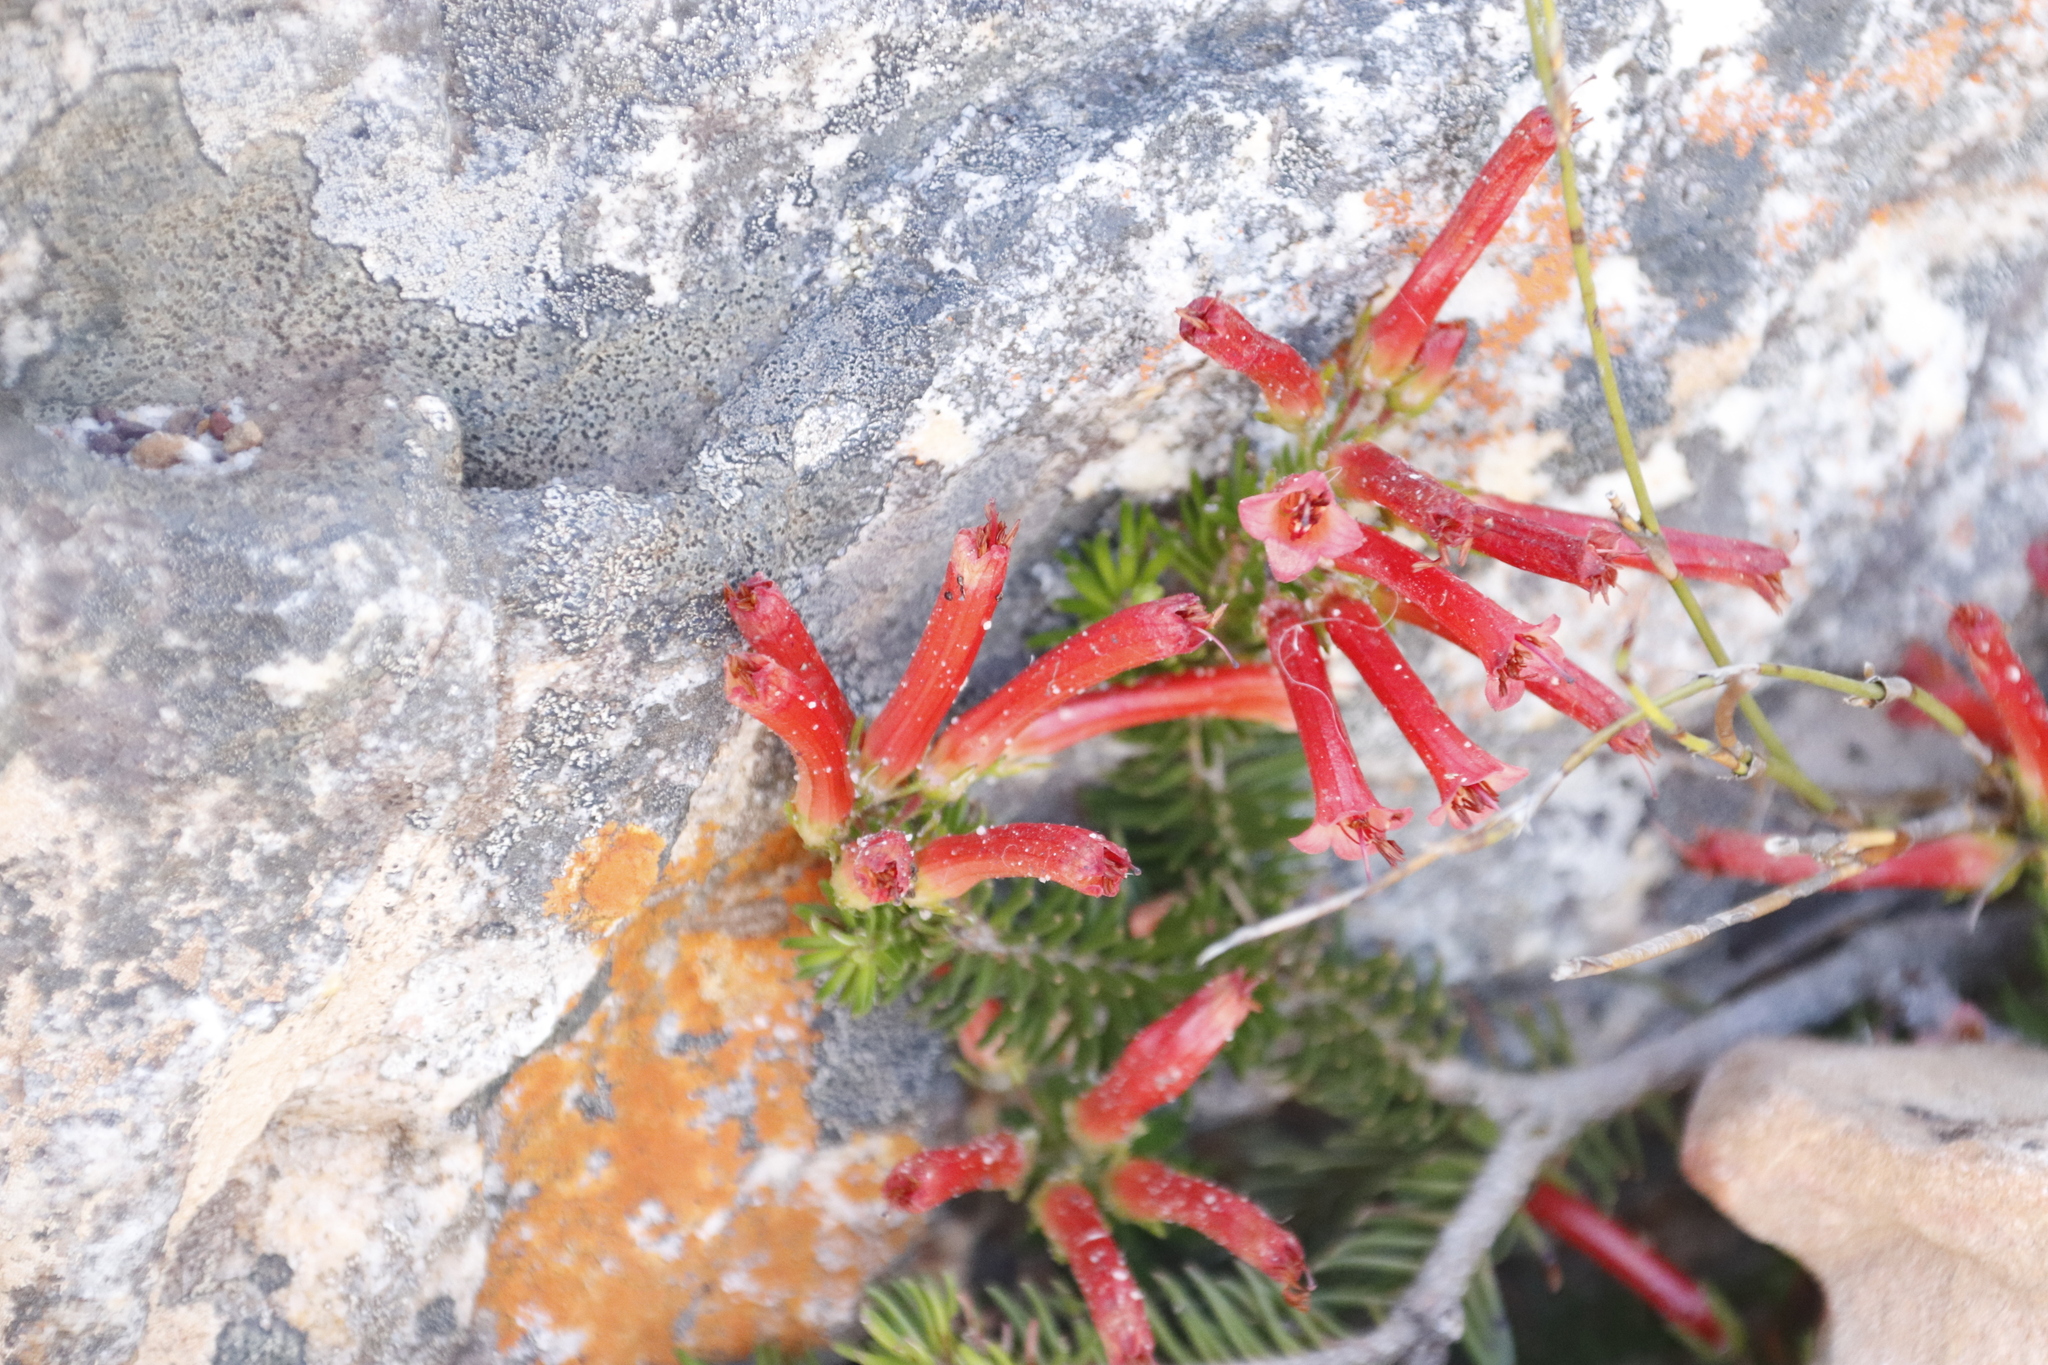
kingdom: Plantae
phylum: Tracheophyta
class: Magnoliopsida
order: Ericales
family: Ericaceae
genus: Erica
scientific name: Erica nevillei
